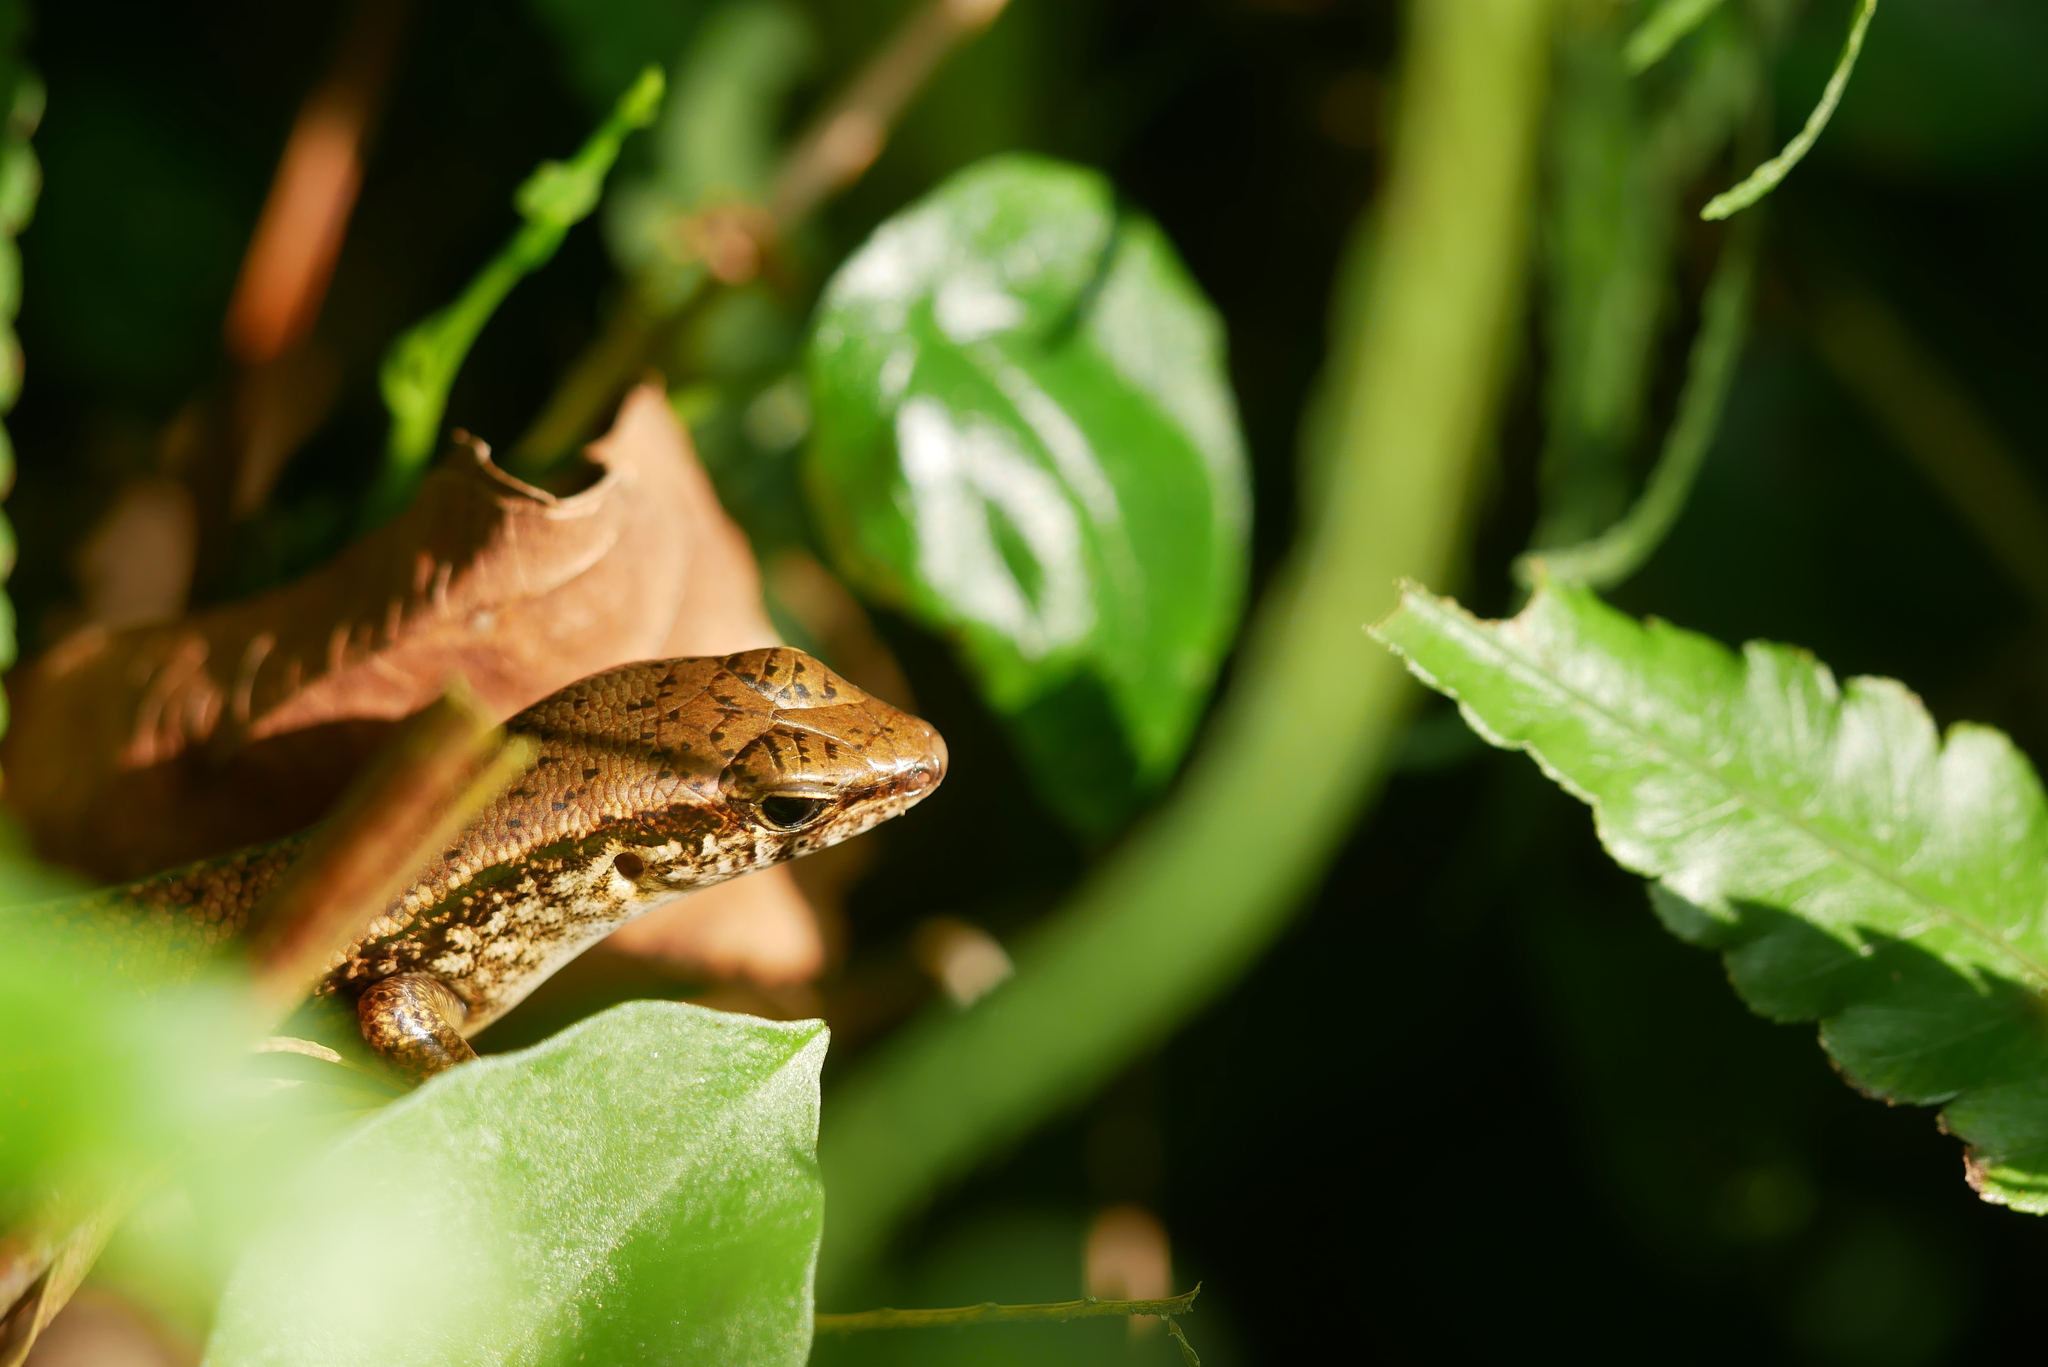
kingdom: Animalia
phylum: Chordata
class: Squamata
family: Scincidae
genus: Sphenomorphus
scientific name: Sphenomorphus indicus
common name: Himalayan forest skink
